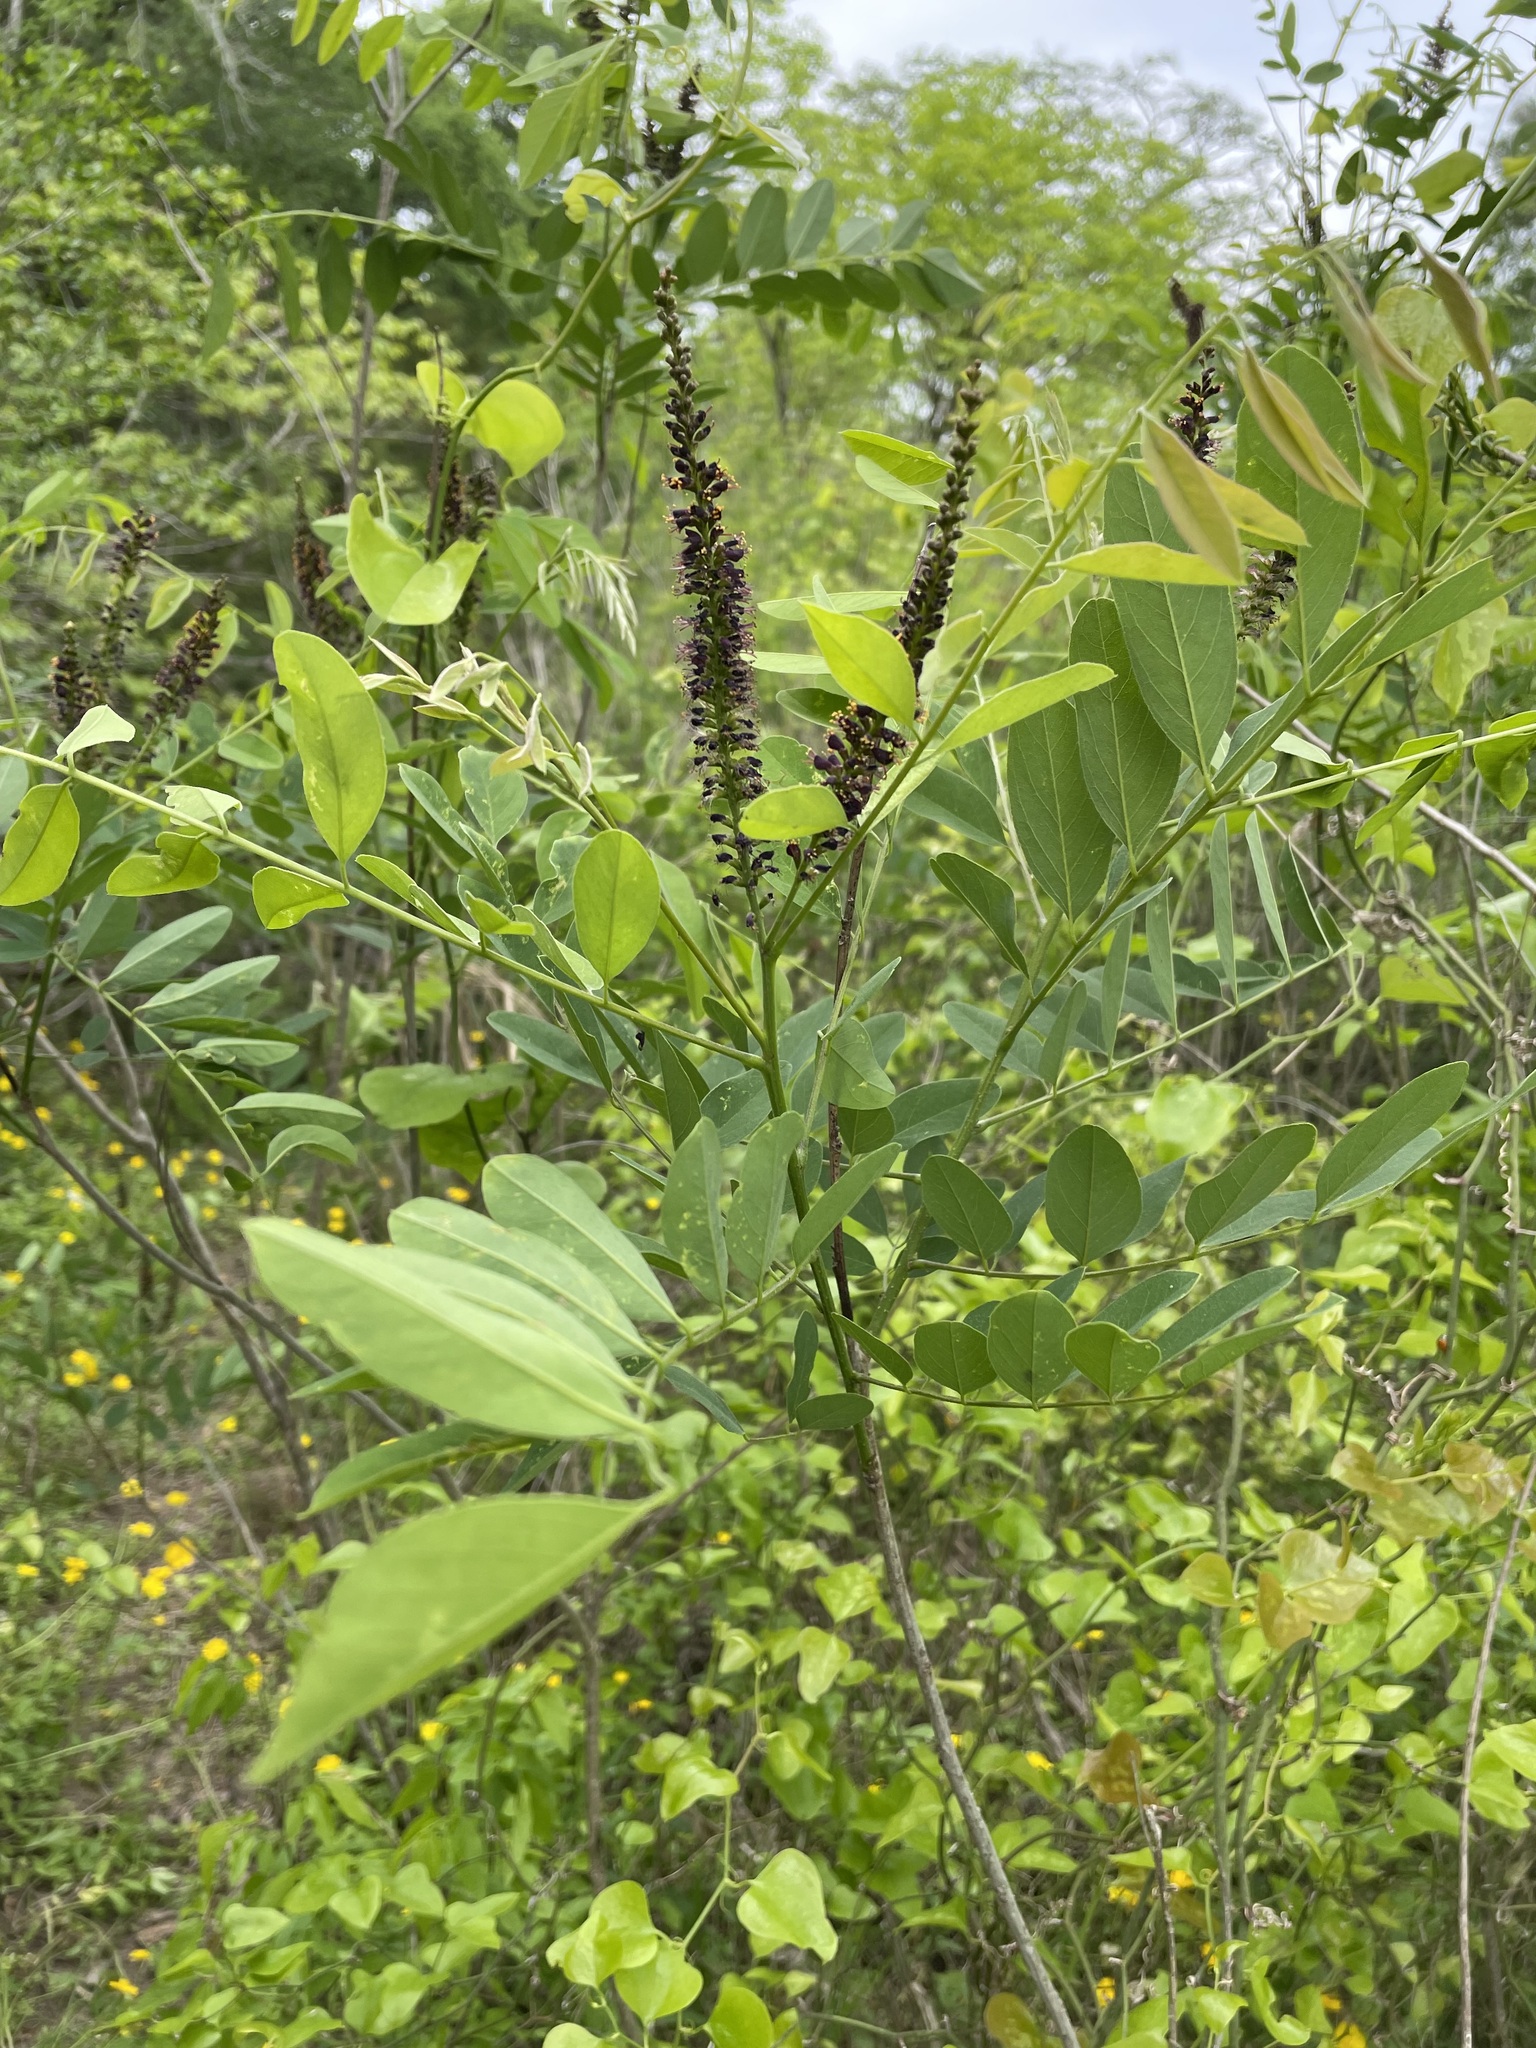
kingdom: Plantae
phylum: Tracheophyta
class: Magnoliopsida
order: Fabales
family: Fabaceae
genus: Amorpha
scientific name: Amorpha fruticosa
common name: False indigo
